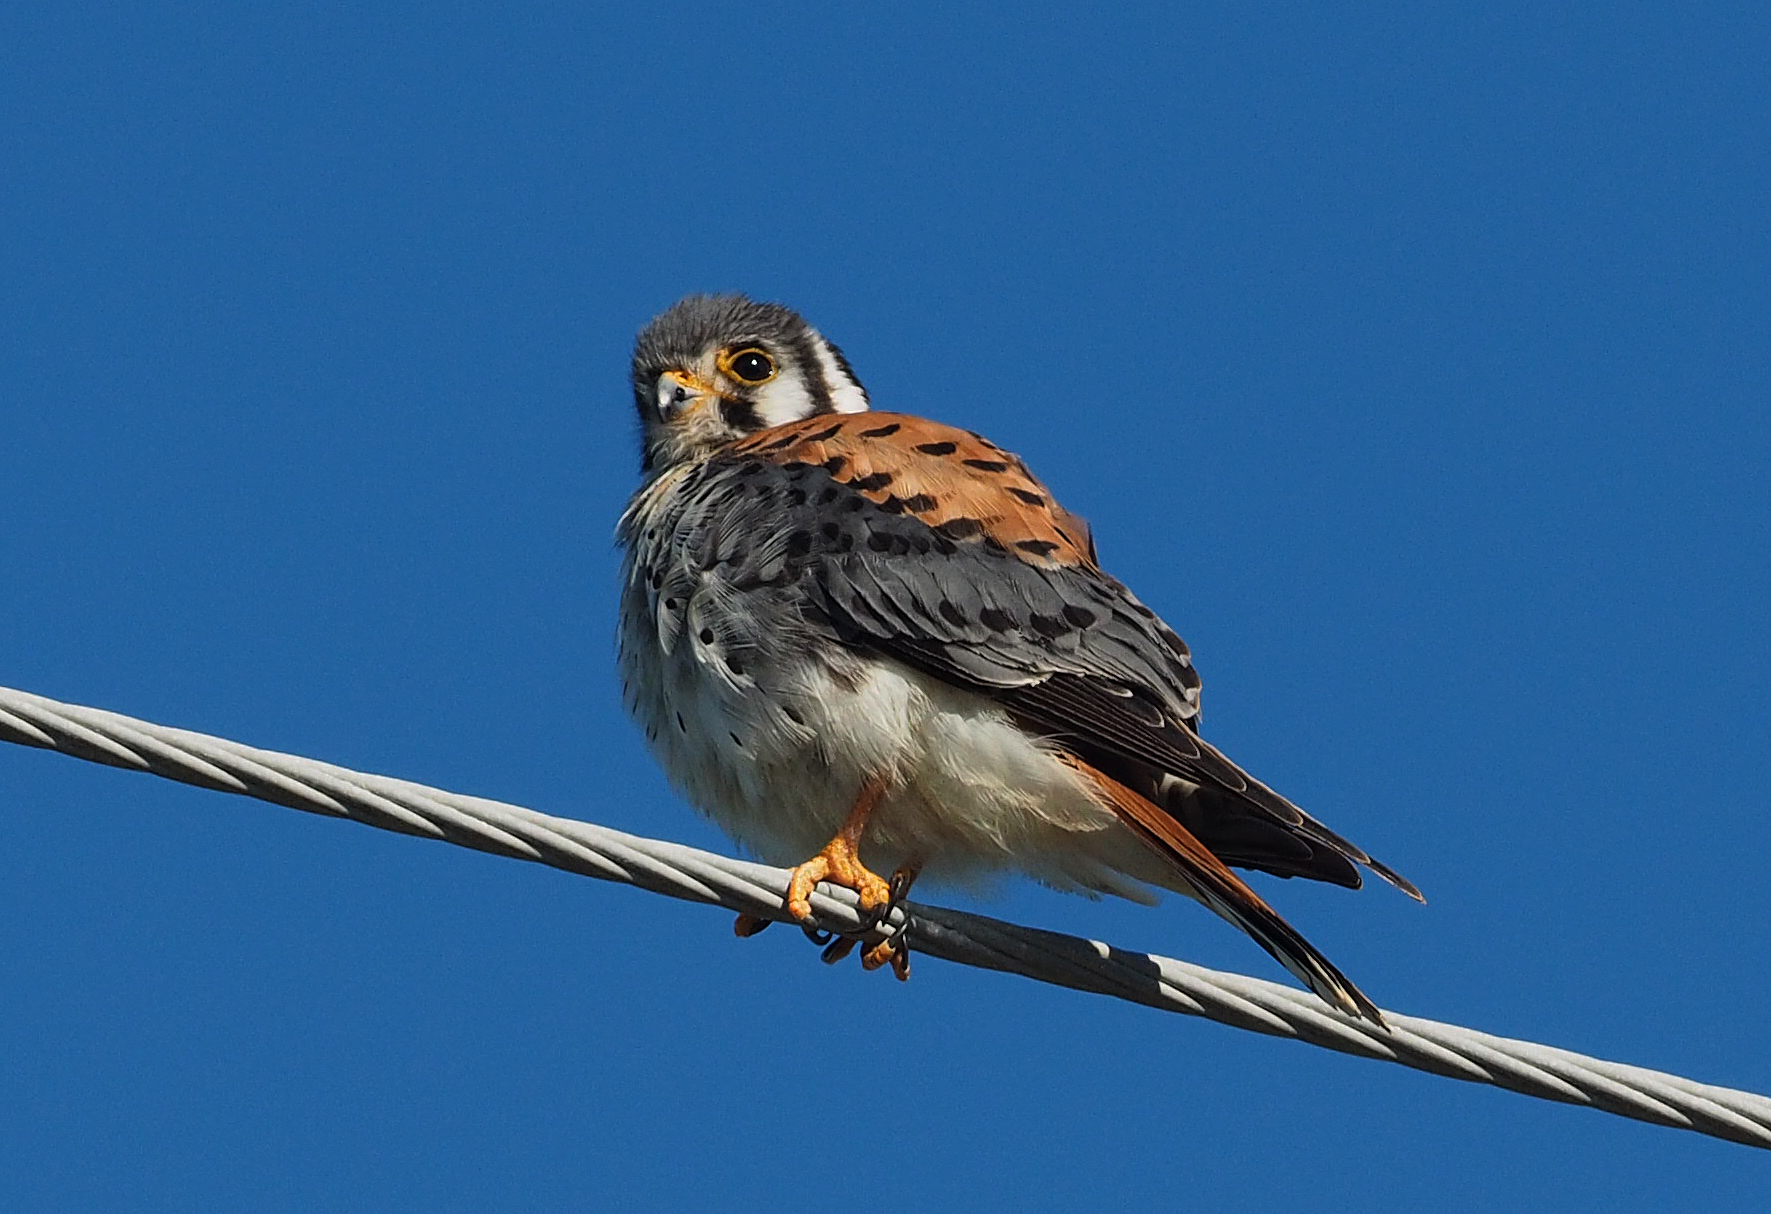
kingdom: Animalia
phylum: Chordata
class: Aves
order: Falconiformes
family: Falconidae
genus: Falco
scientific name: Falco sparverius
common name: American kestrel
